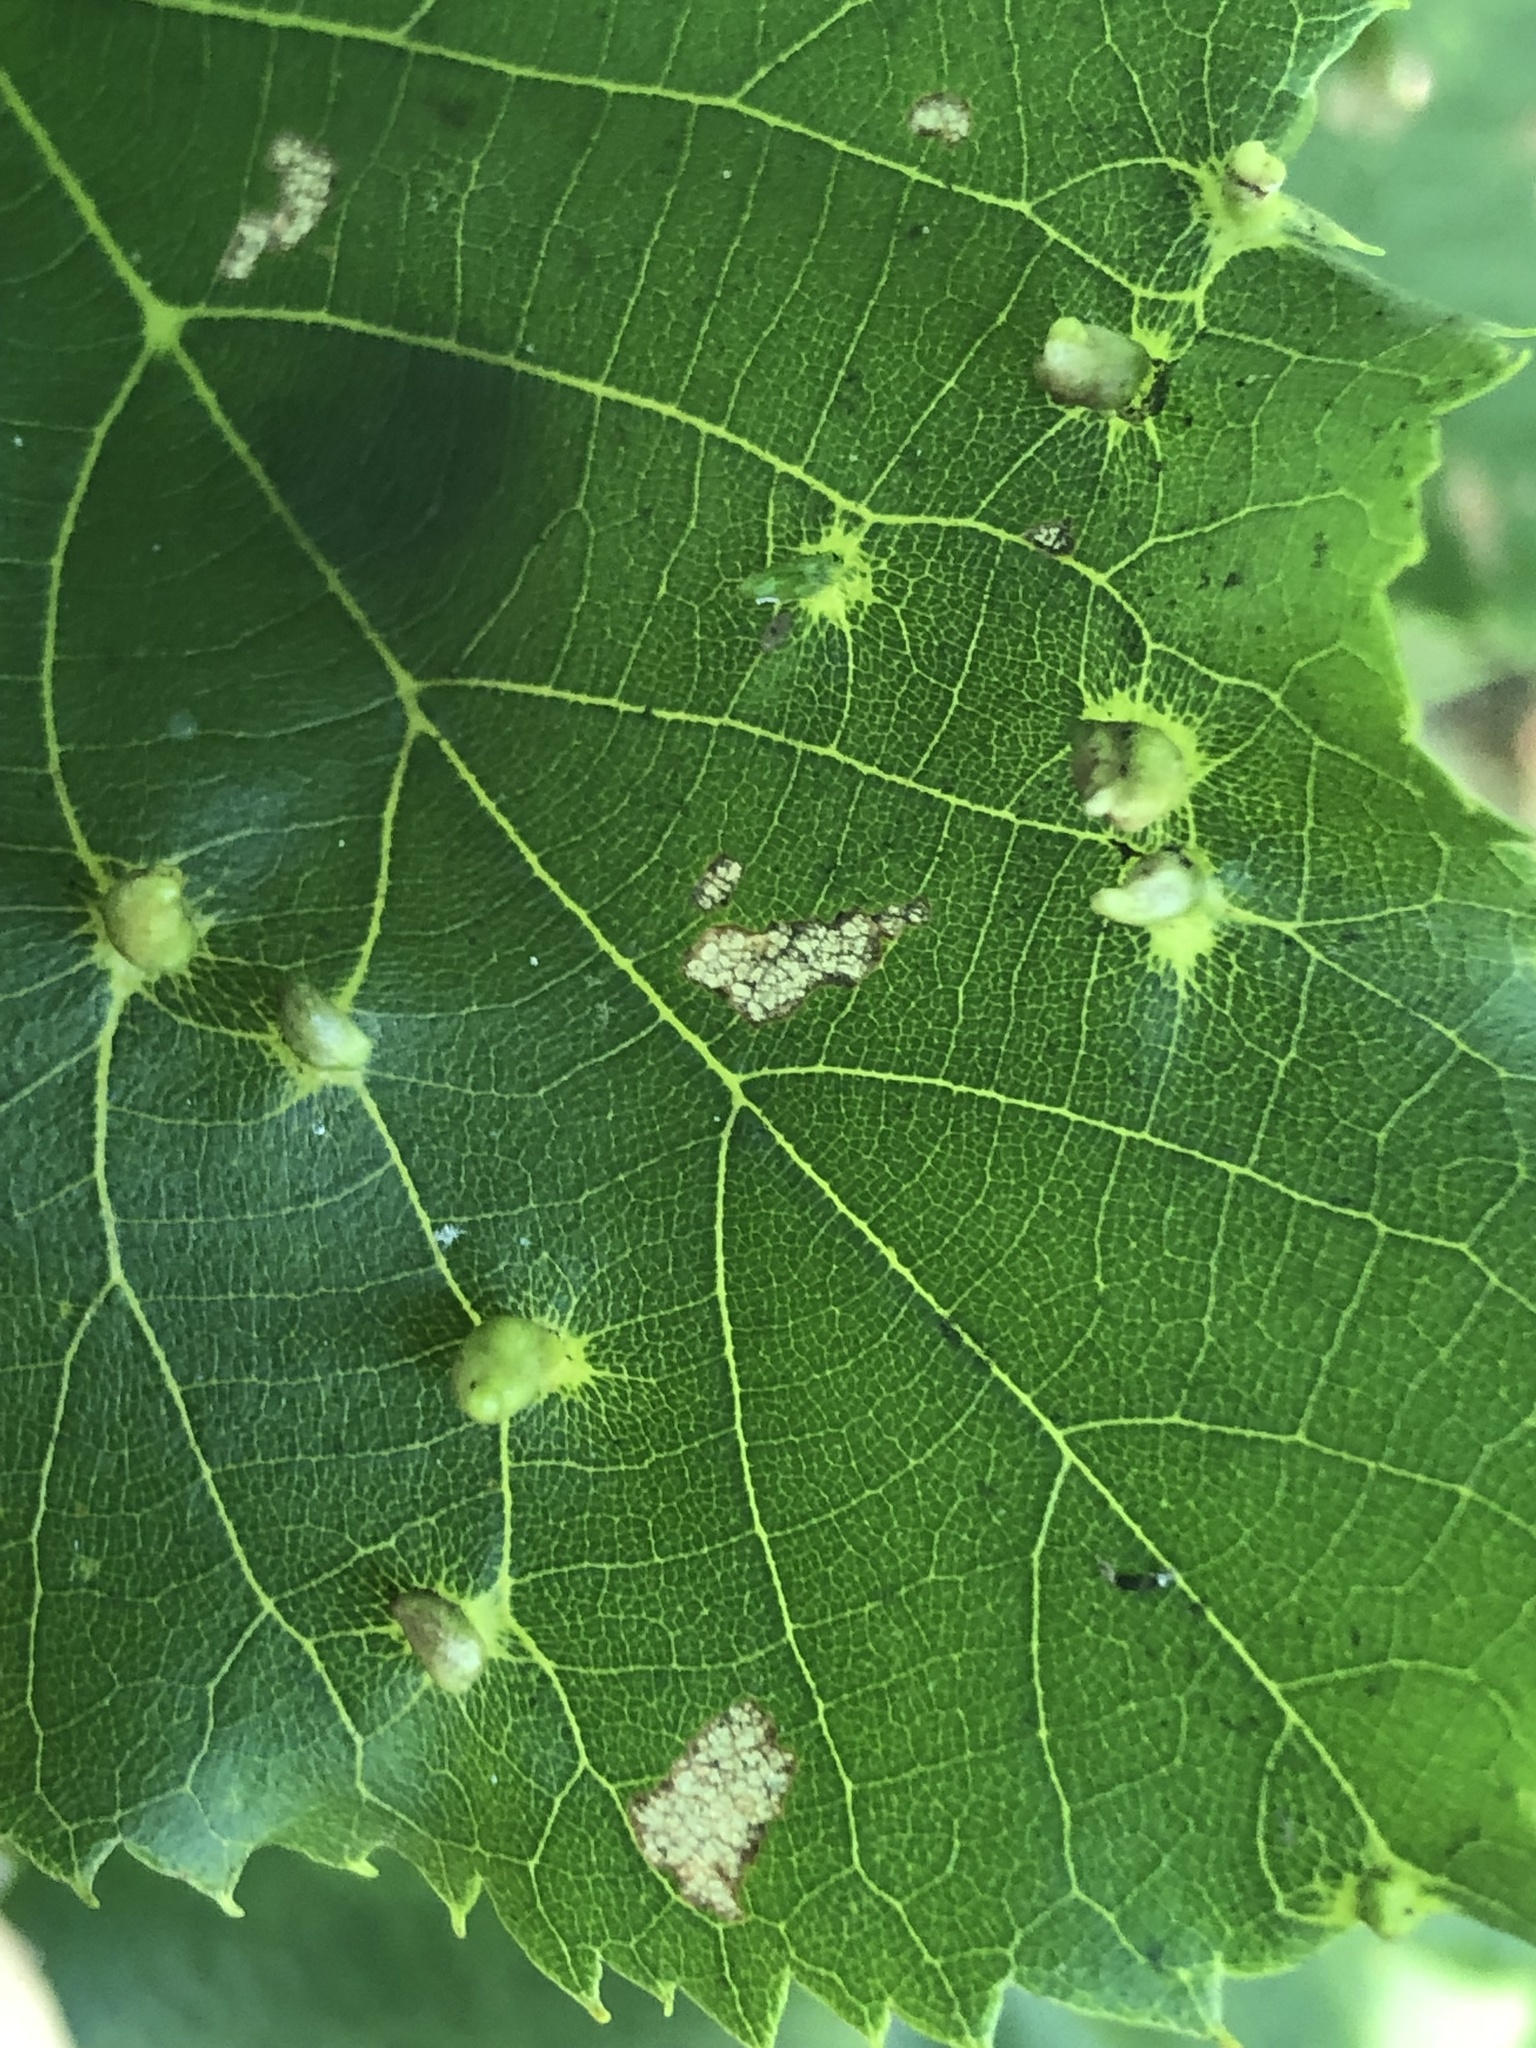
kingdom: Animalia
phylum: Arthropoda
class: Arachnida
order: Trombidiformes
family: Eriophyidae
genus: Eriophyes
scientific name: Eriophyes tiliae
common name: Red nail gall mite
